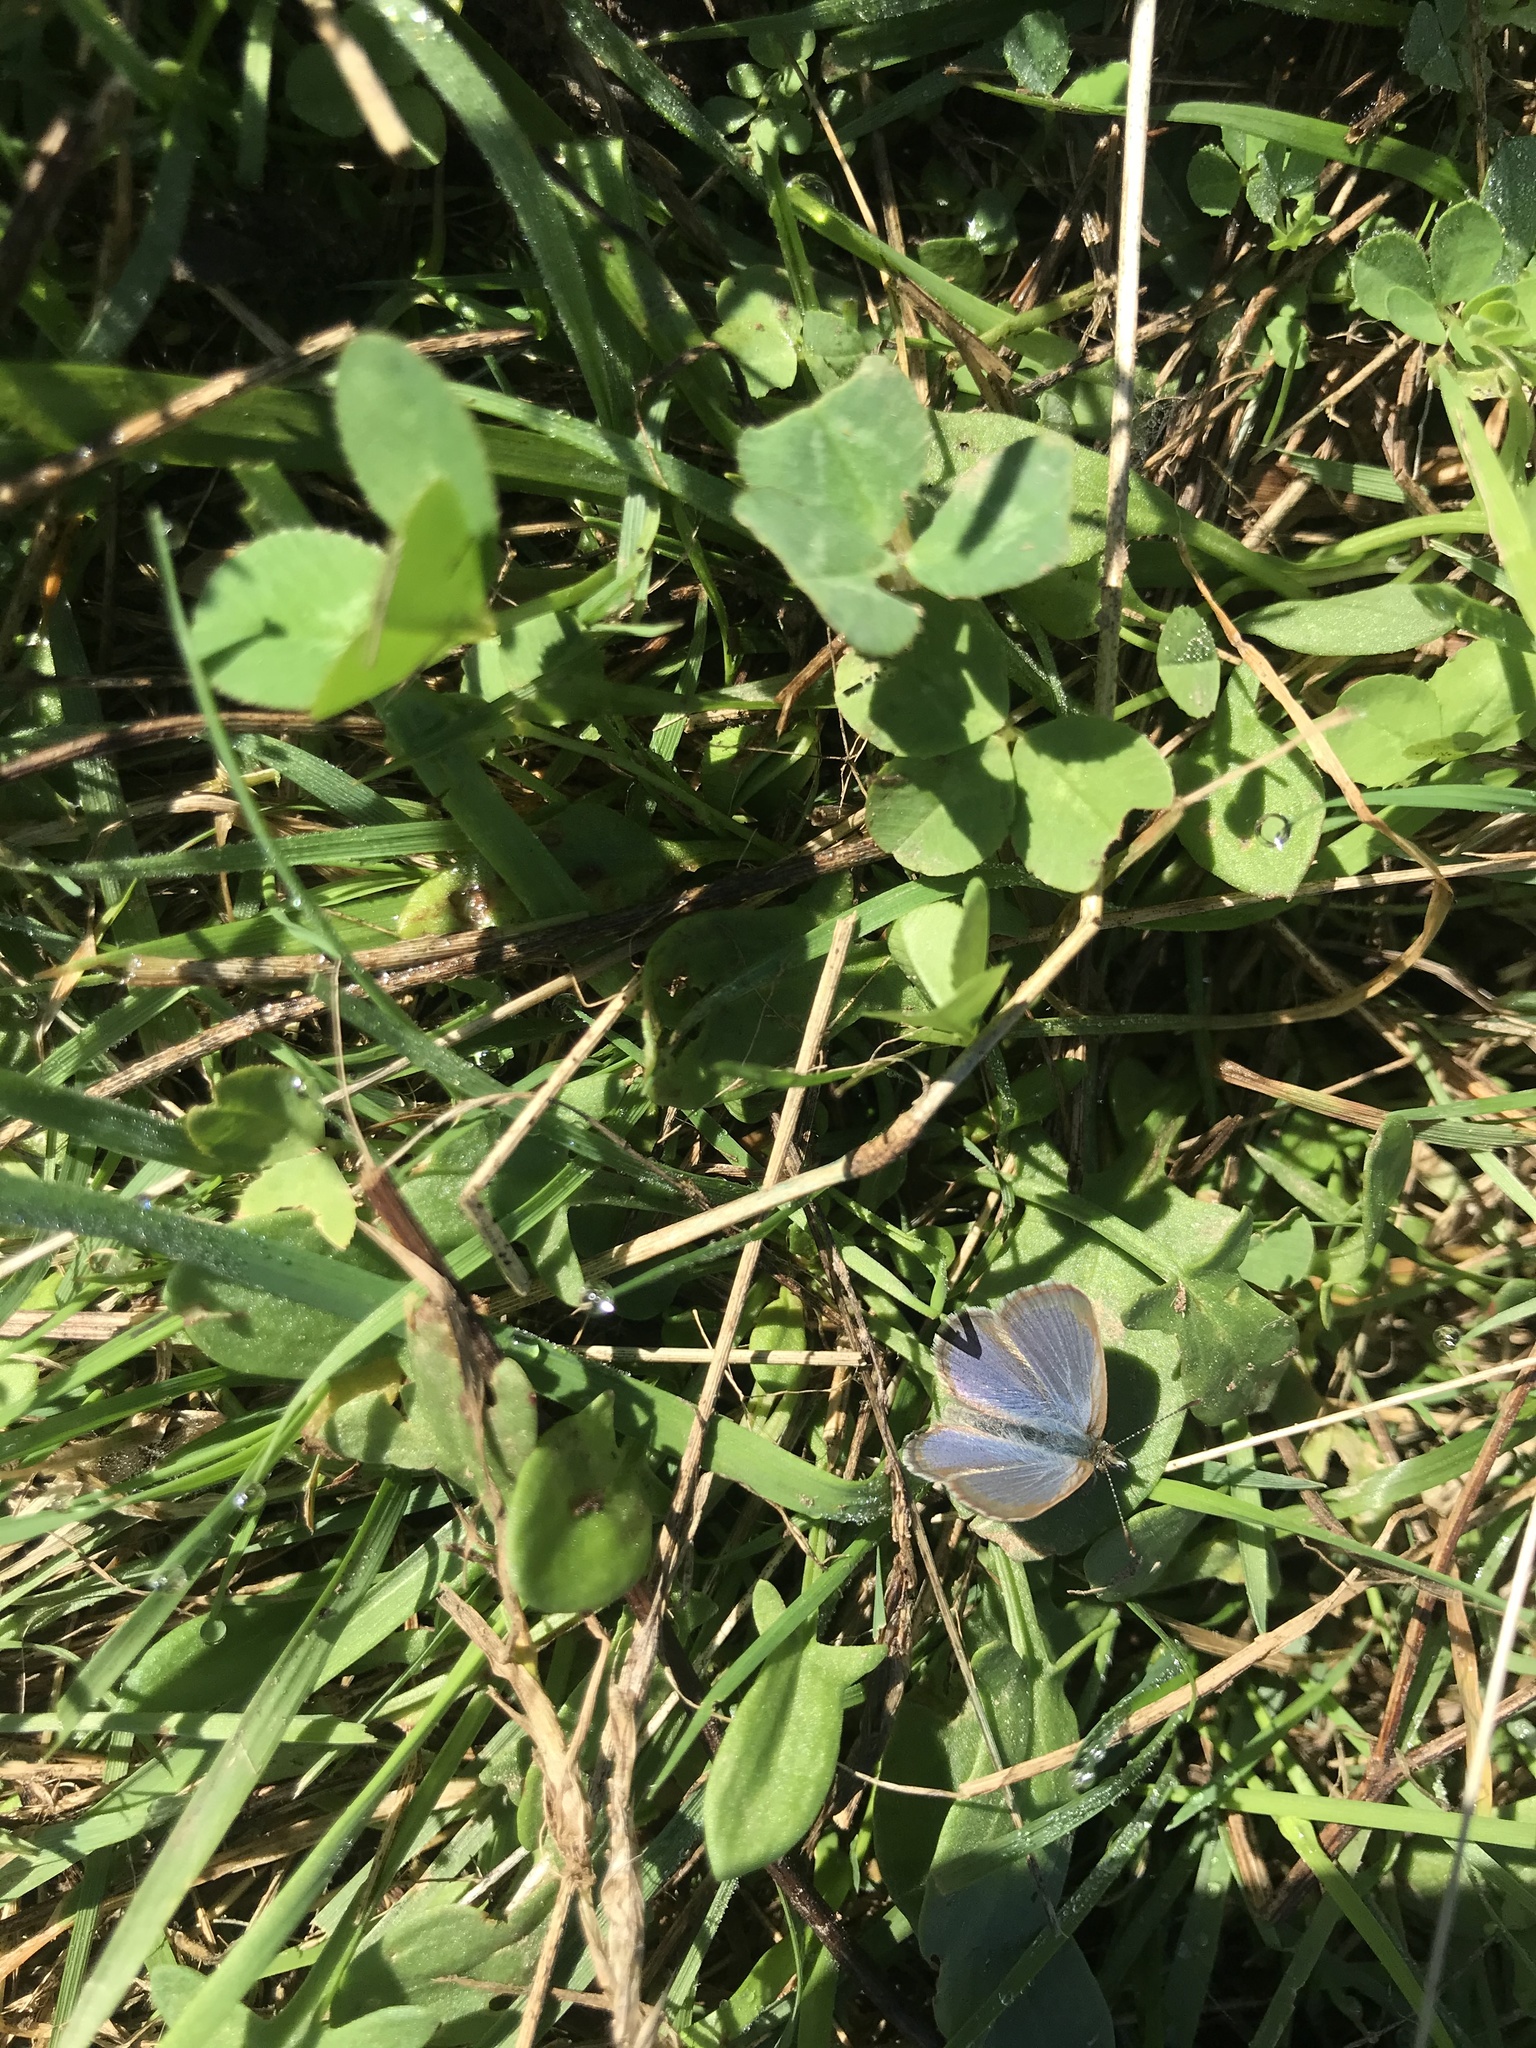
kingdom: Animalia
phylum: Arthropoda
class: Insecta
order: Lepidoptera
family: Lycaenidae
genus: Zizina
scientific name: Zizina labradus
